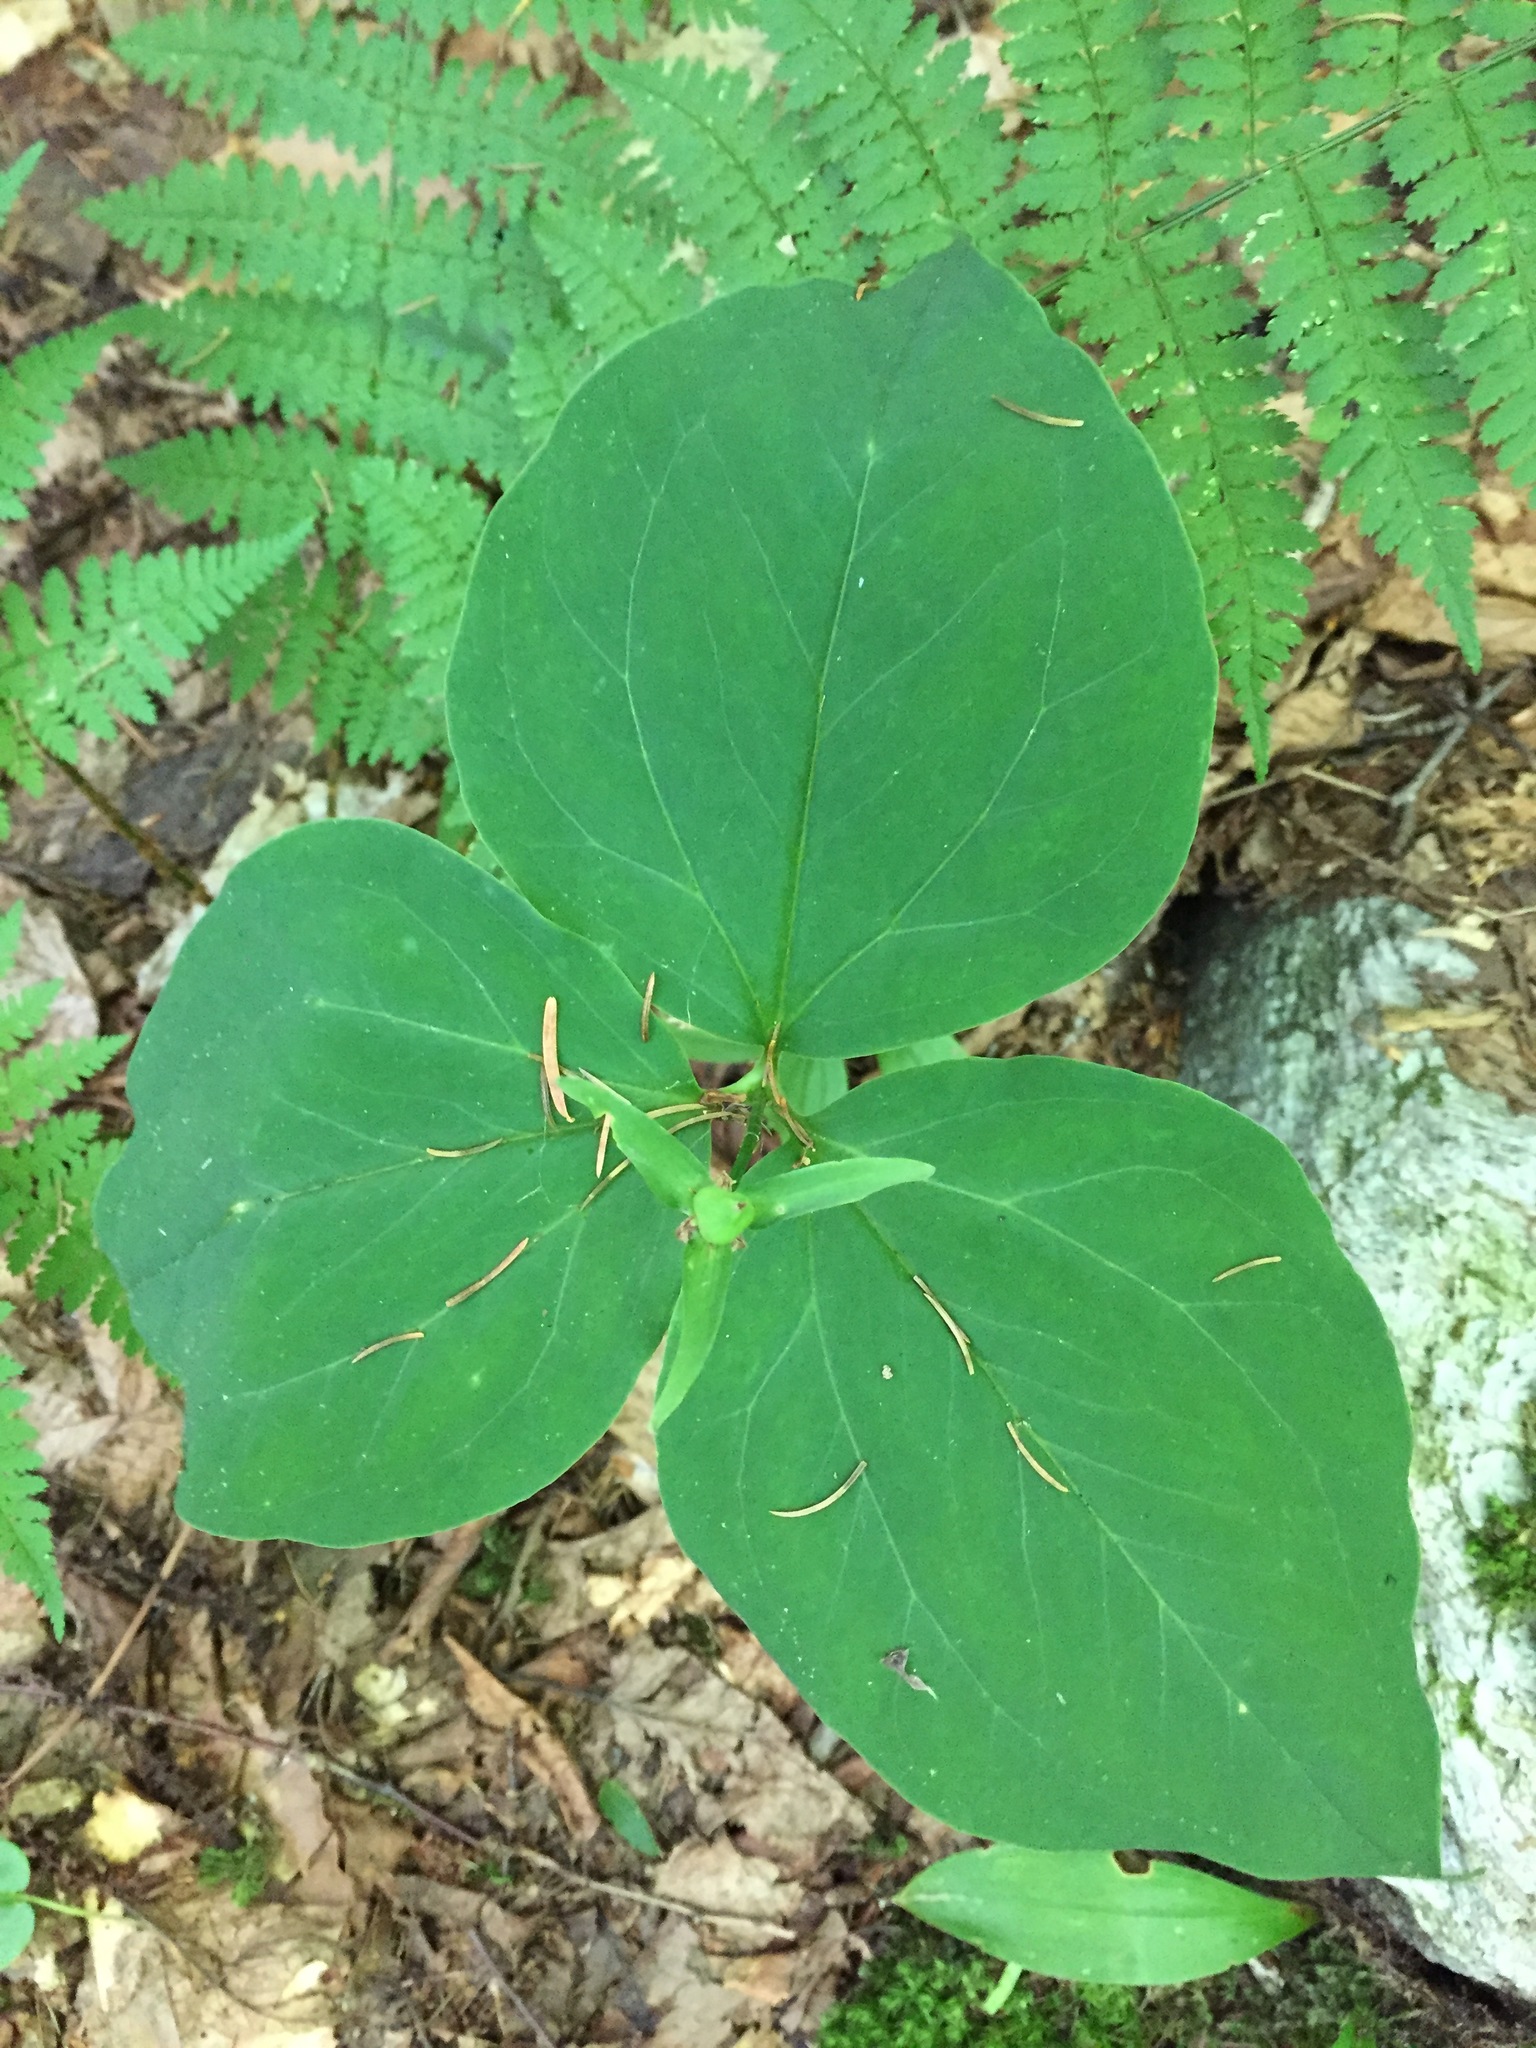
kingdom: Plantae
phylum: Tracheophyta
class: Liliopsida
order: Liliales
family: Melanthiaceae
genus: Trillium
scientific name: Trillium undulatum
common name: Paint trillium
